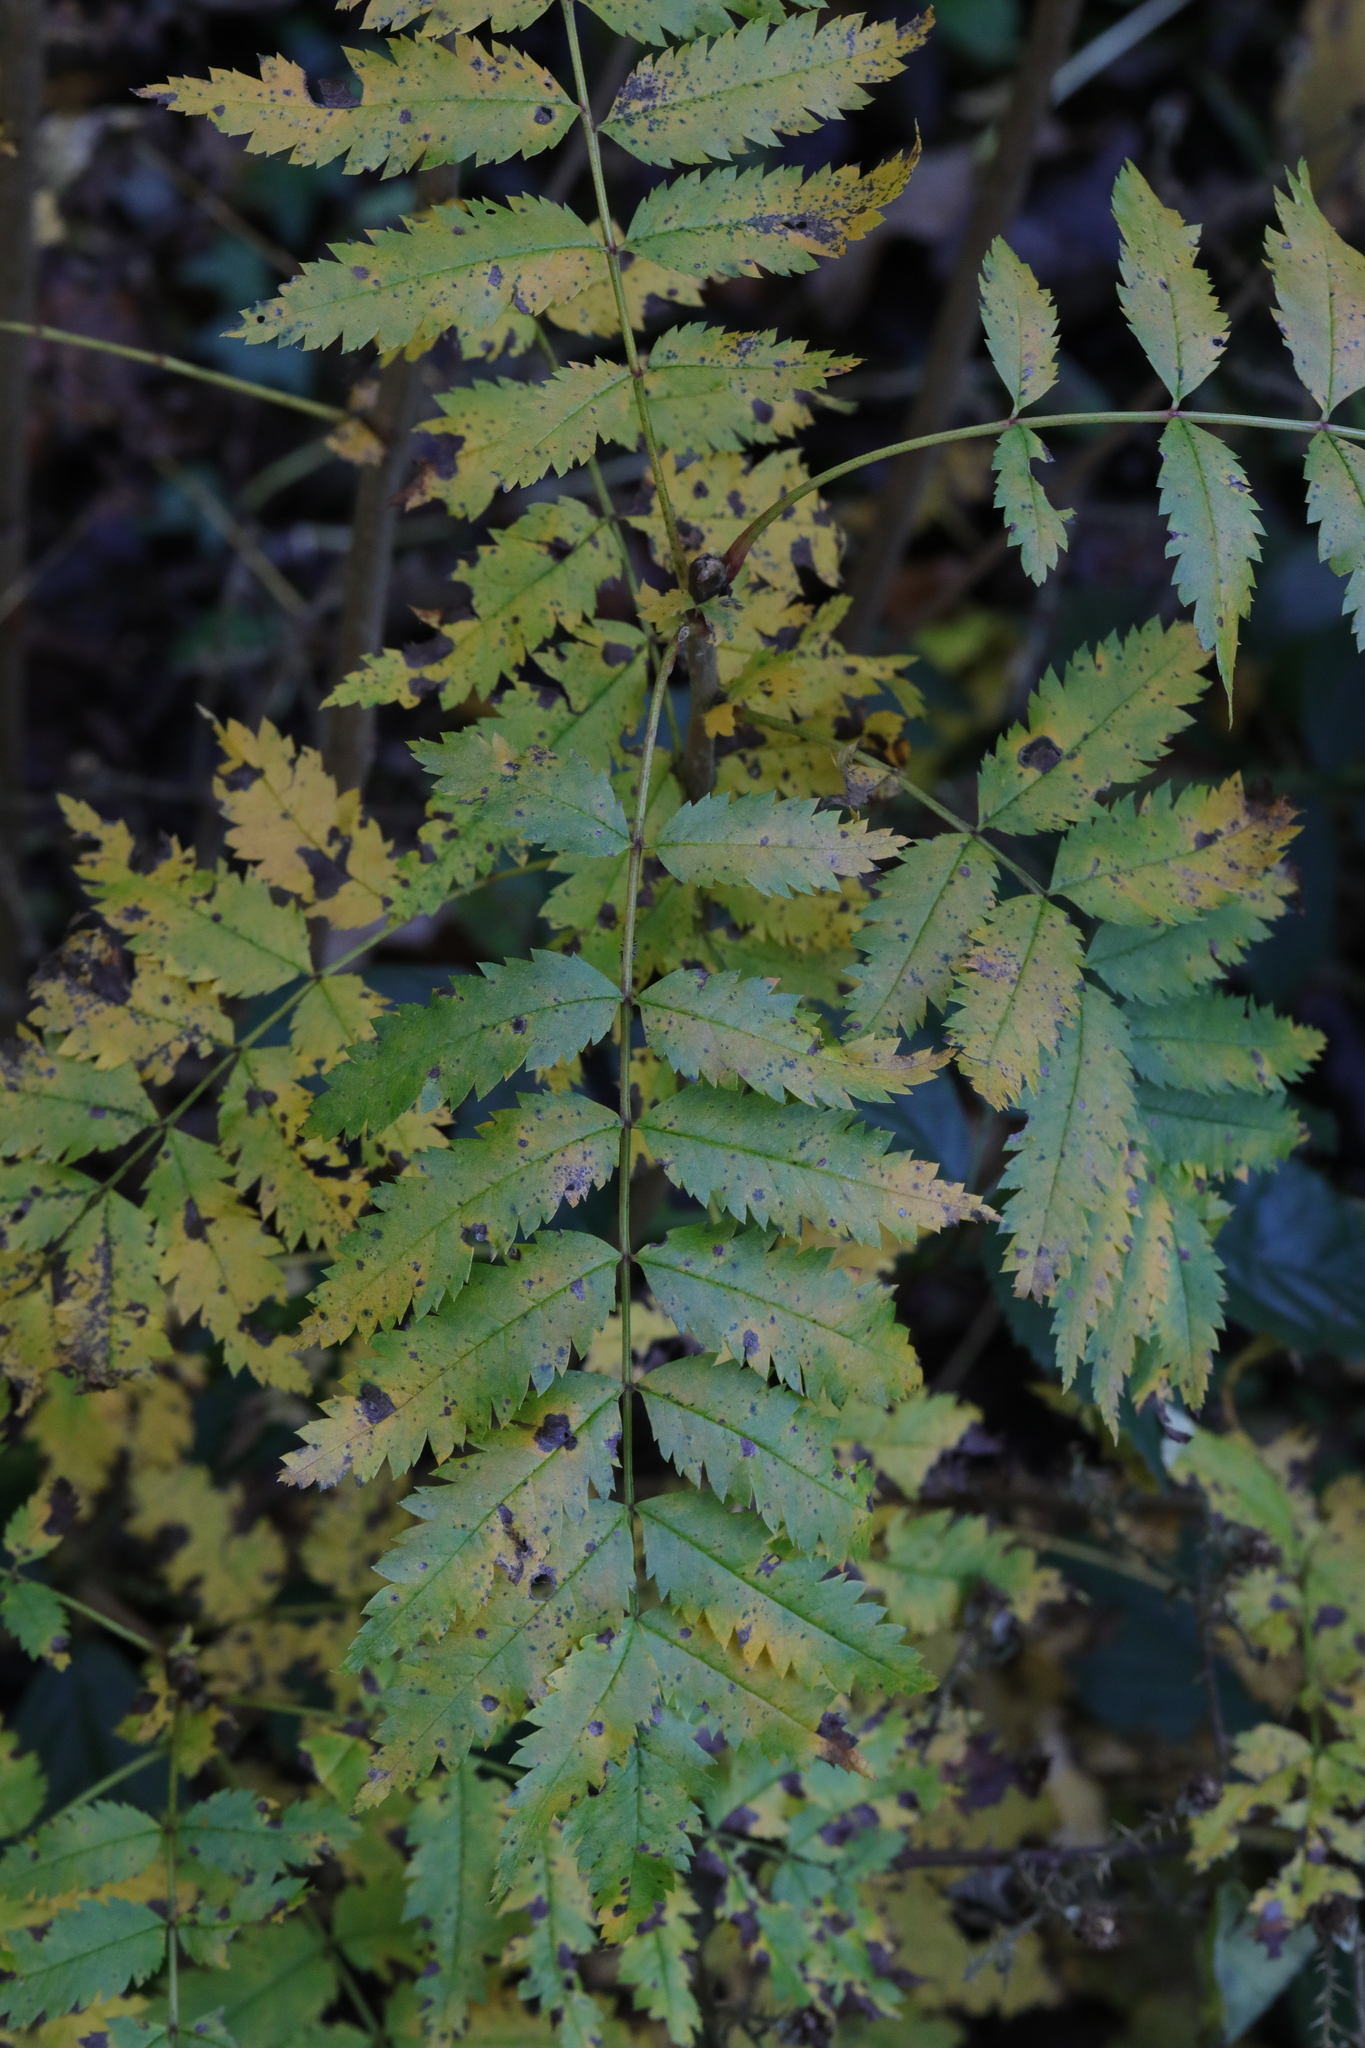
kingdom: Plantae
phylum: Tracheophyta
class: Magnoliopsida
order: Rosales
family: Rosaceae
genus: Sorbus
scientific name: Sorbus aucuparia
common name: Rowan
